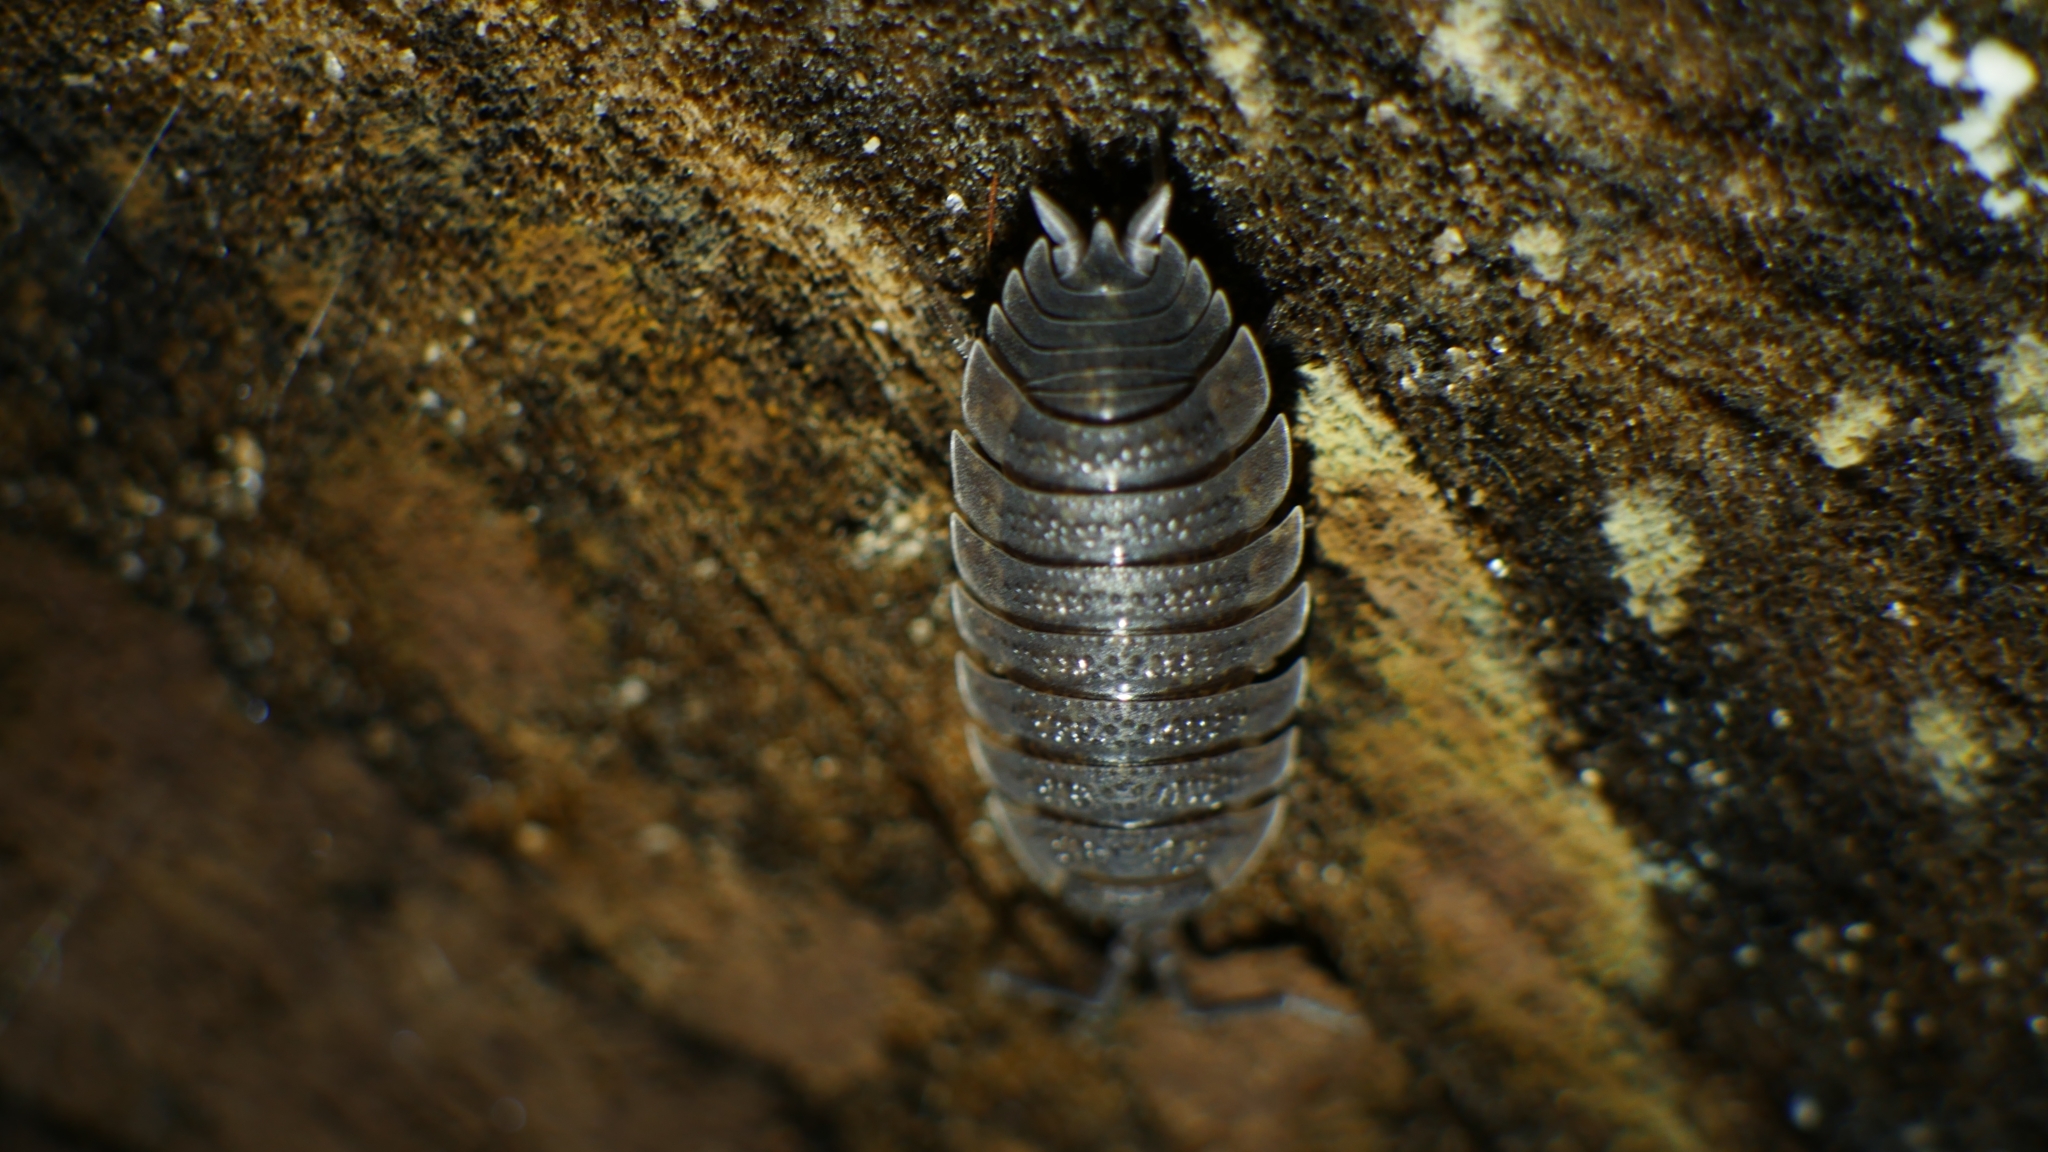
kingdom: Animalia
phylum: Arthropoda
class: Malacostraca
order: Isopoda
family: Porcellionidae
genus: Porcellio
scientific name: Porcellio scaber
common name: Common rough woodlouse
